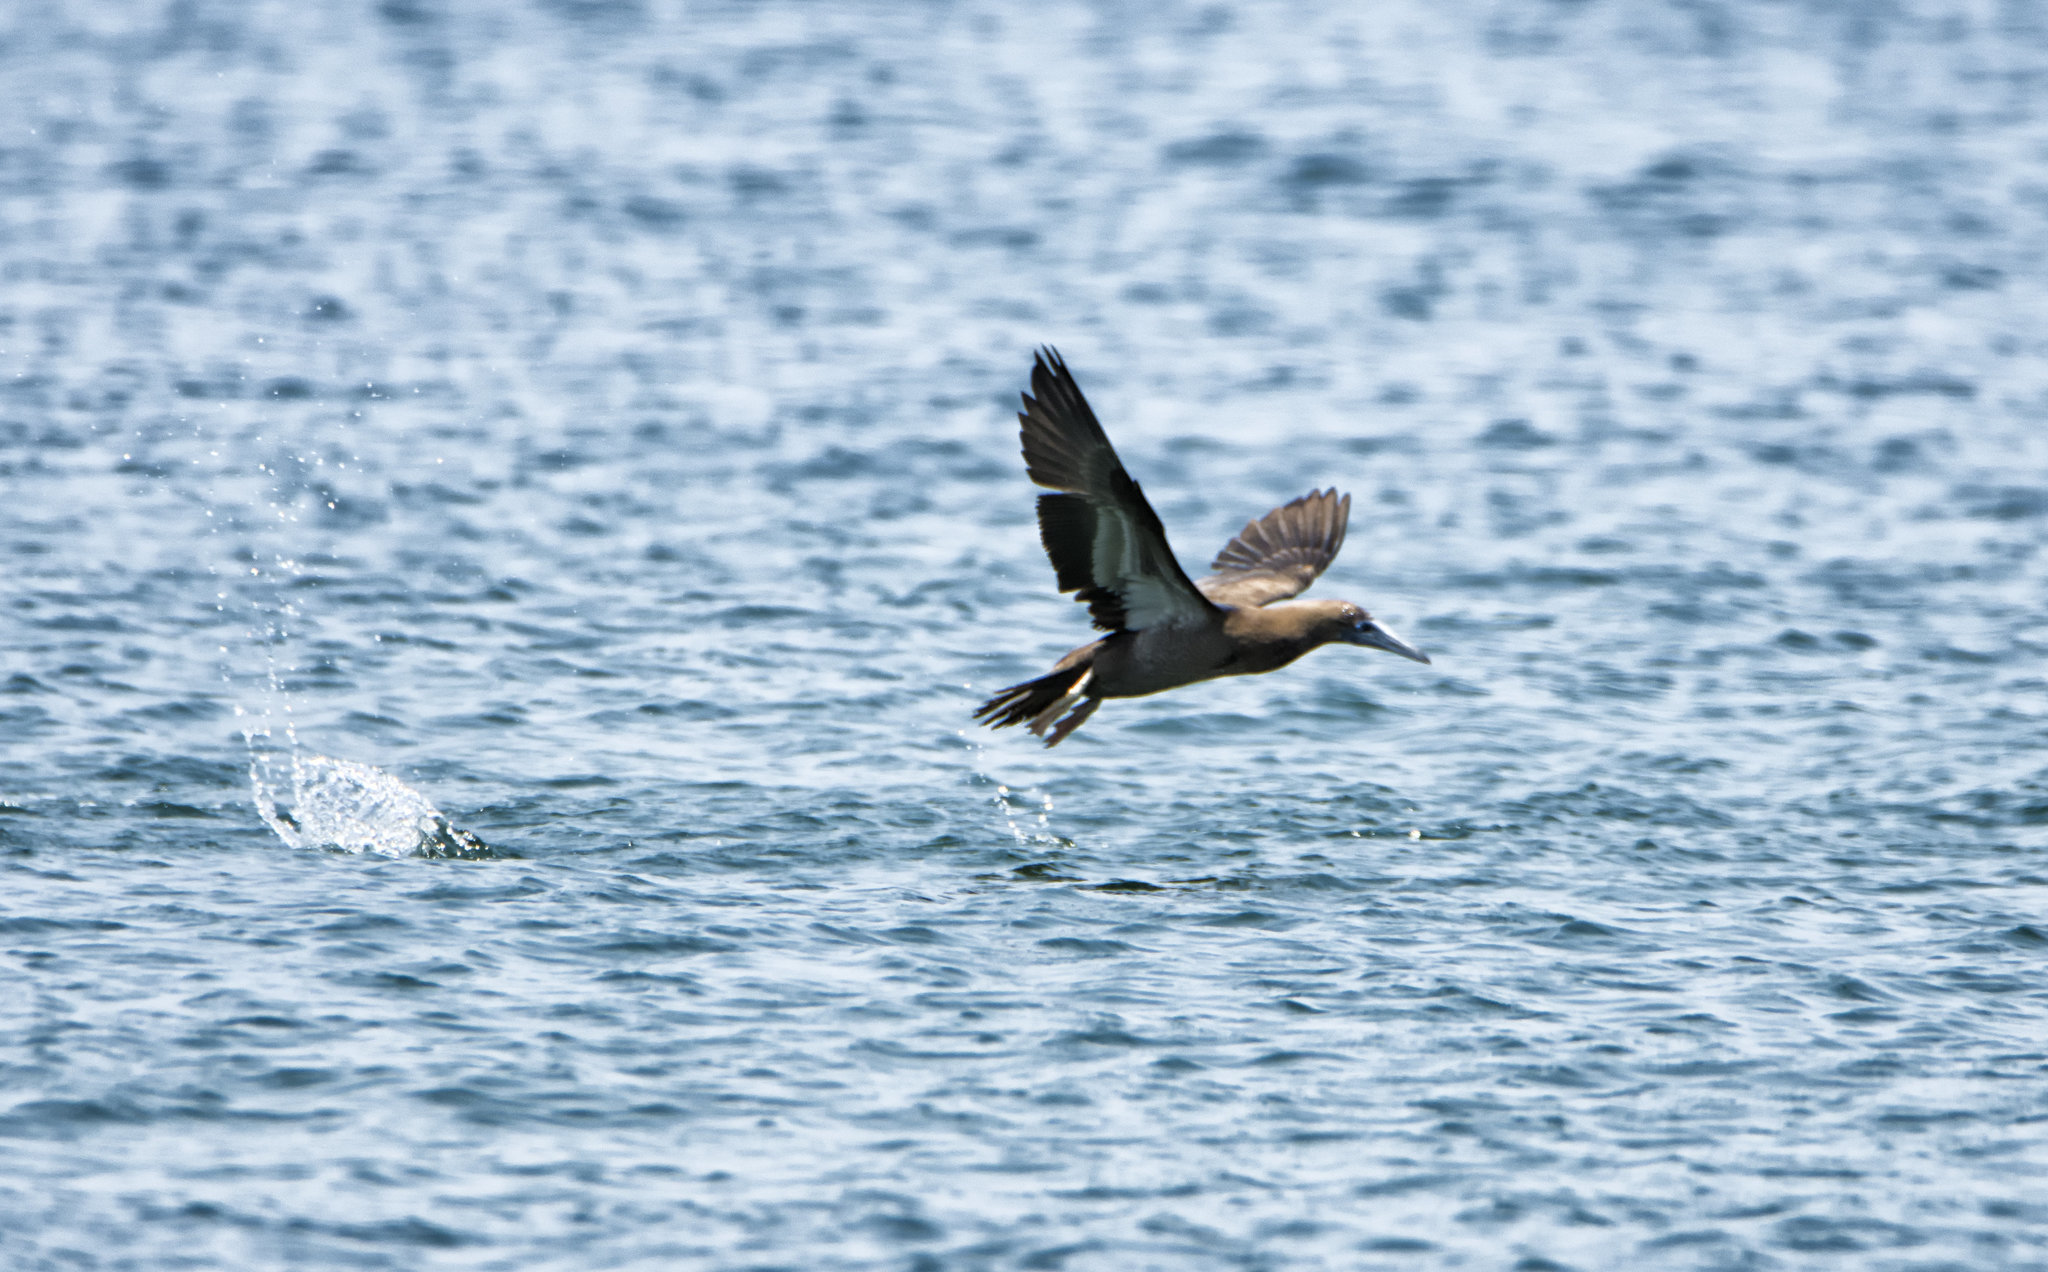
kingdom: Animalia
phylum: Chordata
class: Aves
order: Suliformes
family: Sulidae
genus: Sula
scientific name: Sula leucogaster
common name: Brown booby
